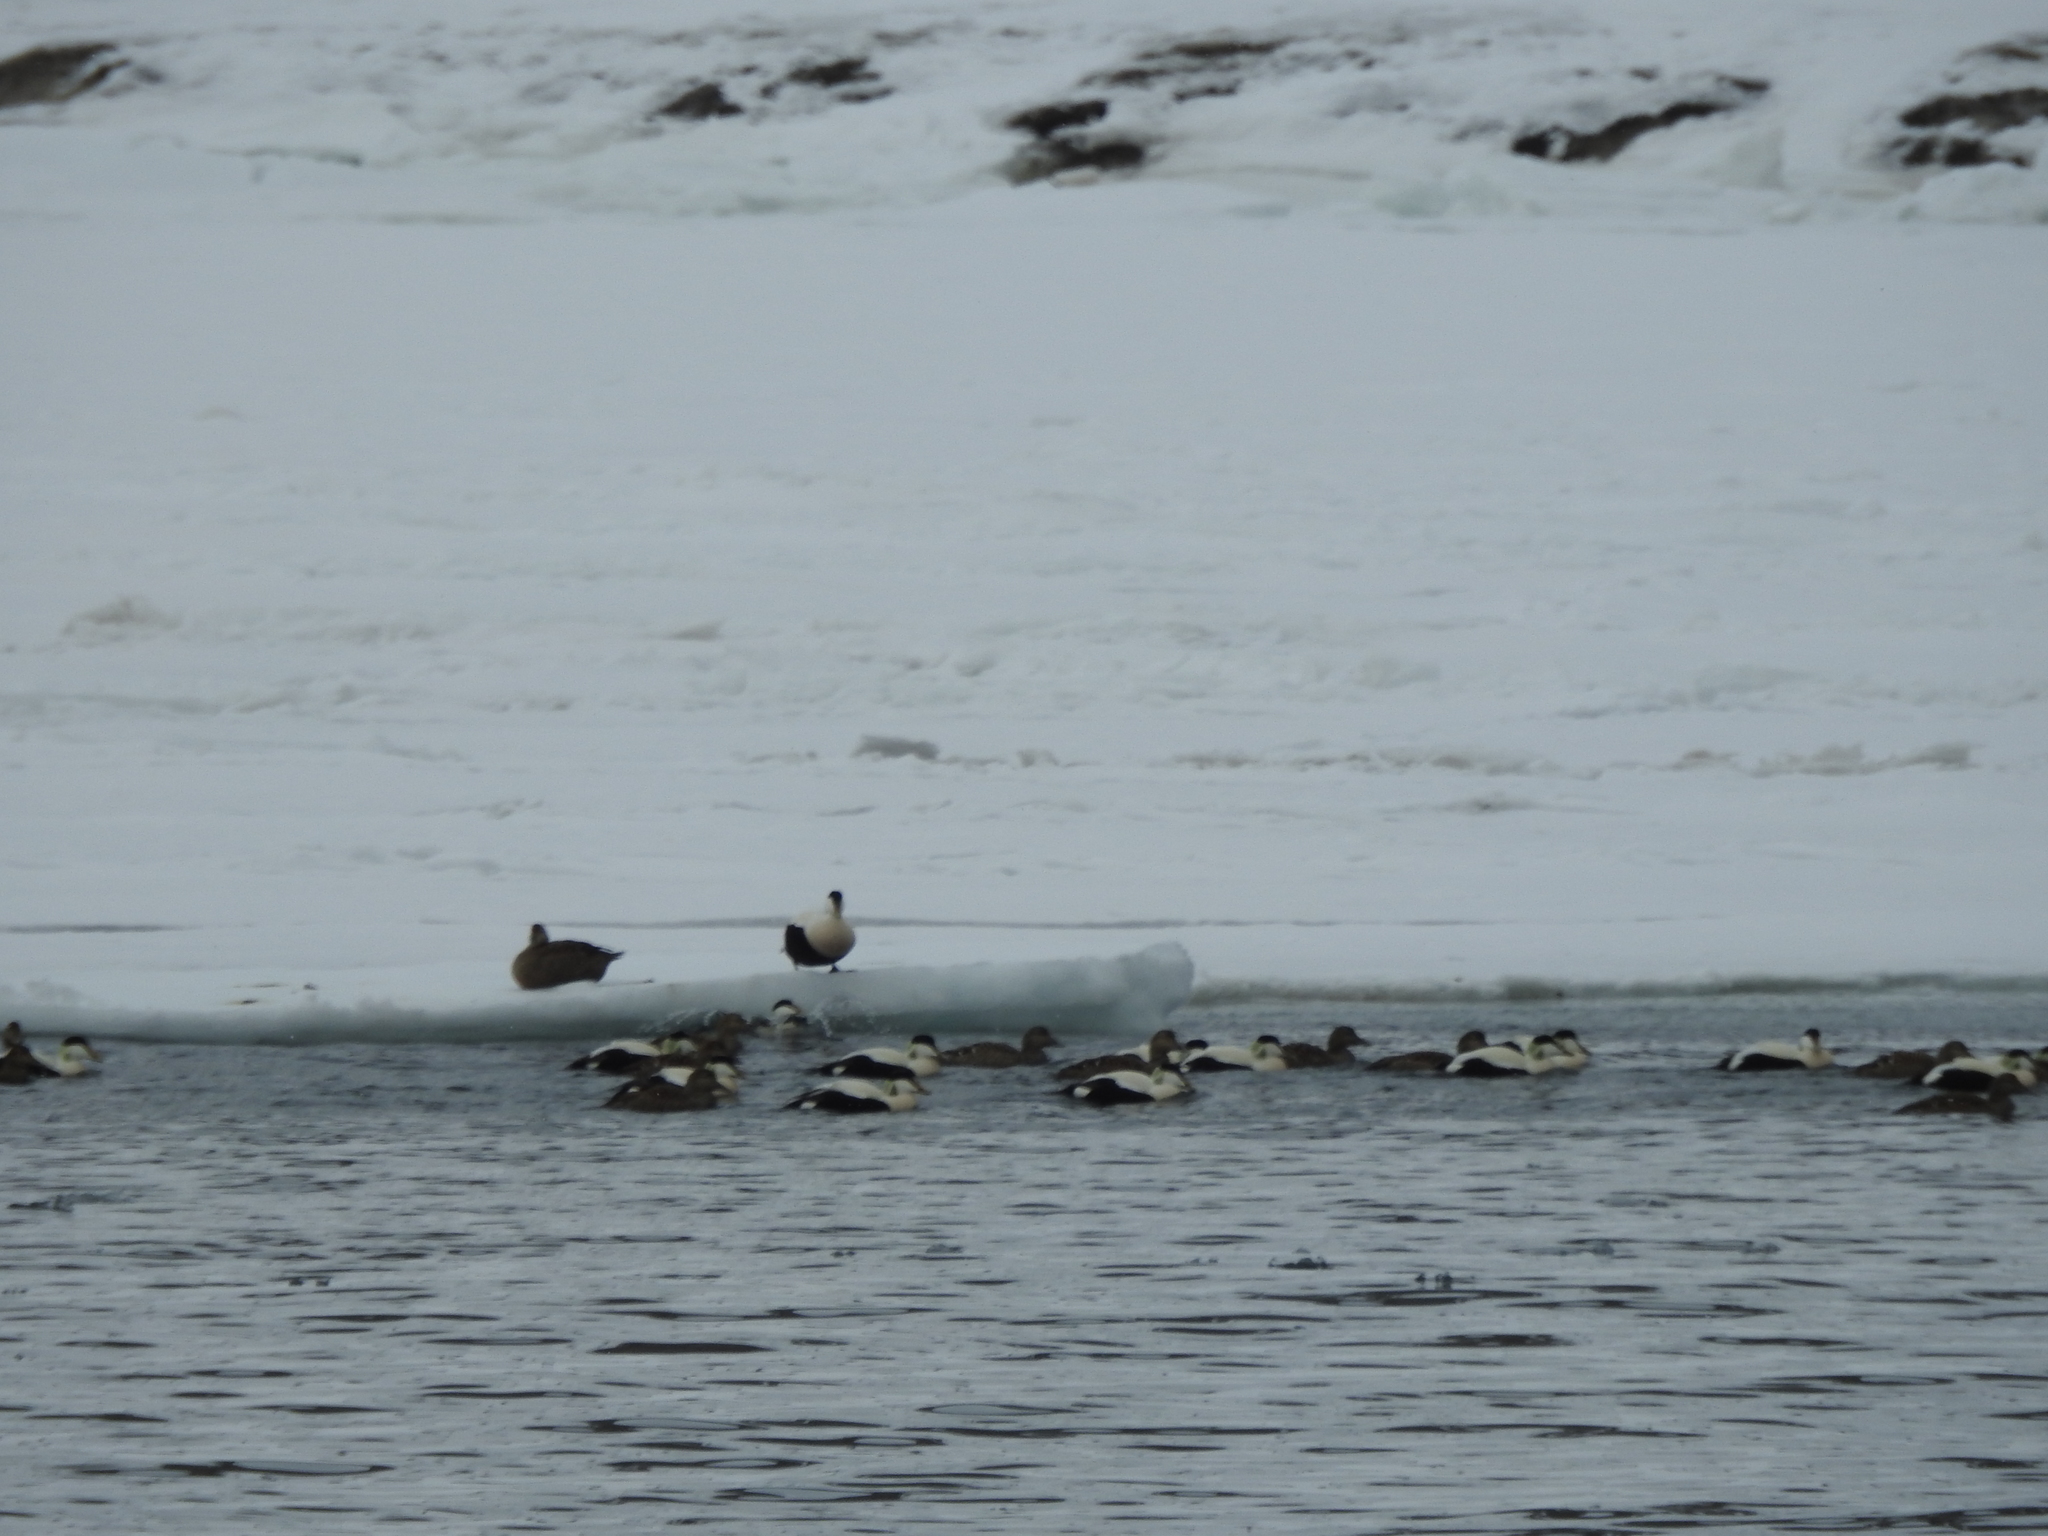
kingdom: Animalia
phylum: Chordata
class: Aves
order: Anseriformes
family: Anatidae
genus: Somateria
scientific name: Somateria mollissima
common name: Common eider
